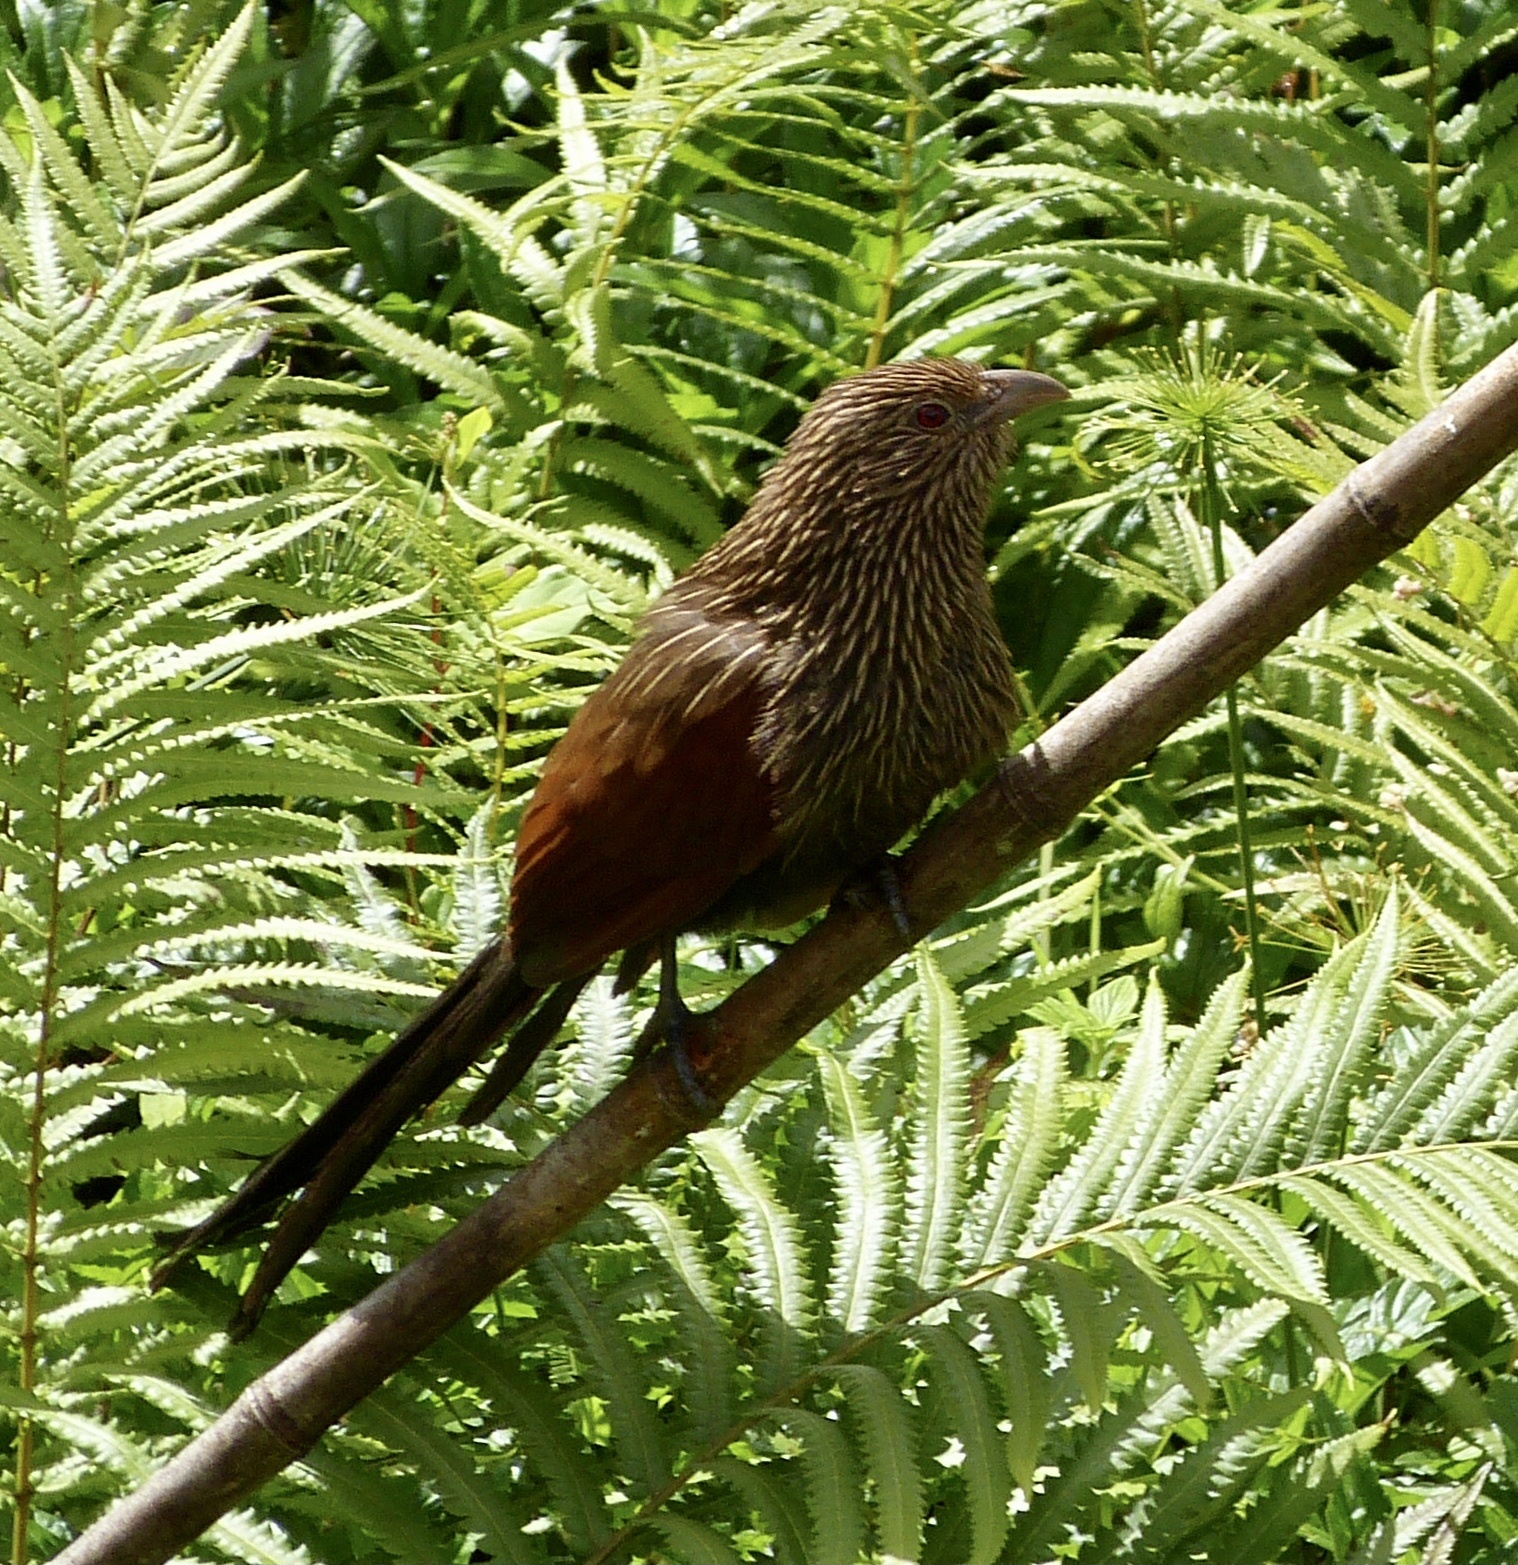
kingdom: Animalia
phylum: Chordata
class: Aves
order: Cuculiformes
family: Cuculidae
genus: Centropus
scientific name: Centropus toulou
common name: Malagasy coucal
